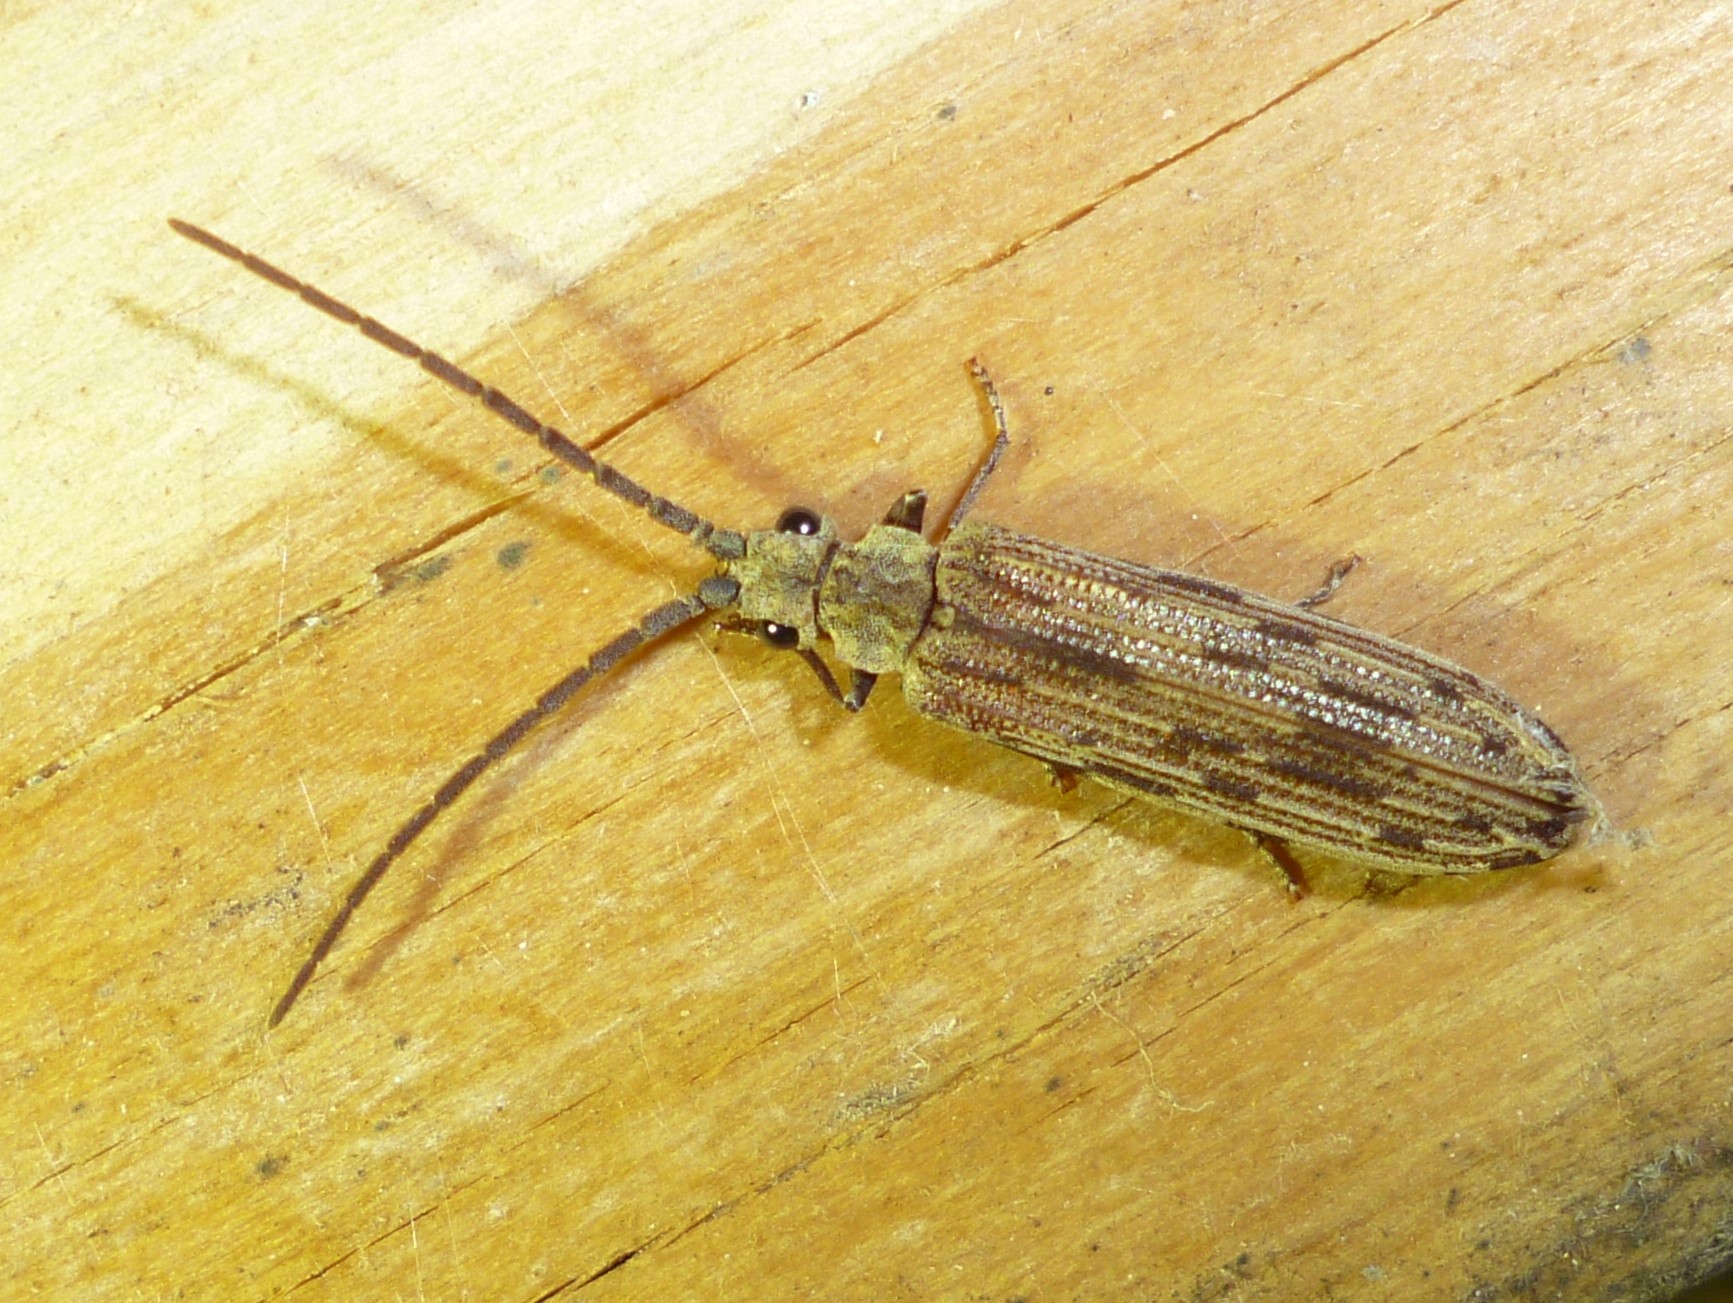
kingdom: Animalia
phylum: Arthropoda
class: Insecta
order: Coleoptera
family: Cupedidae
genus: Tenomerga
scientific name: Tenomerga cinerea
